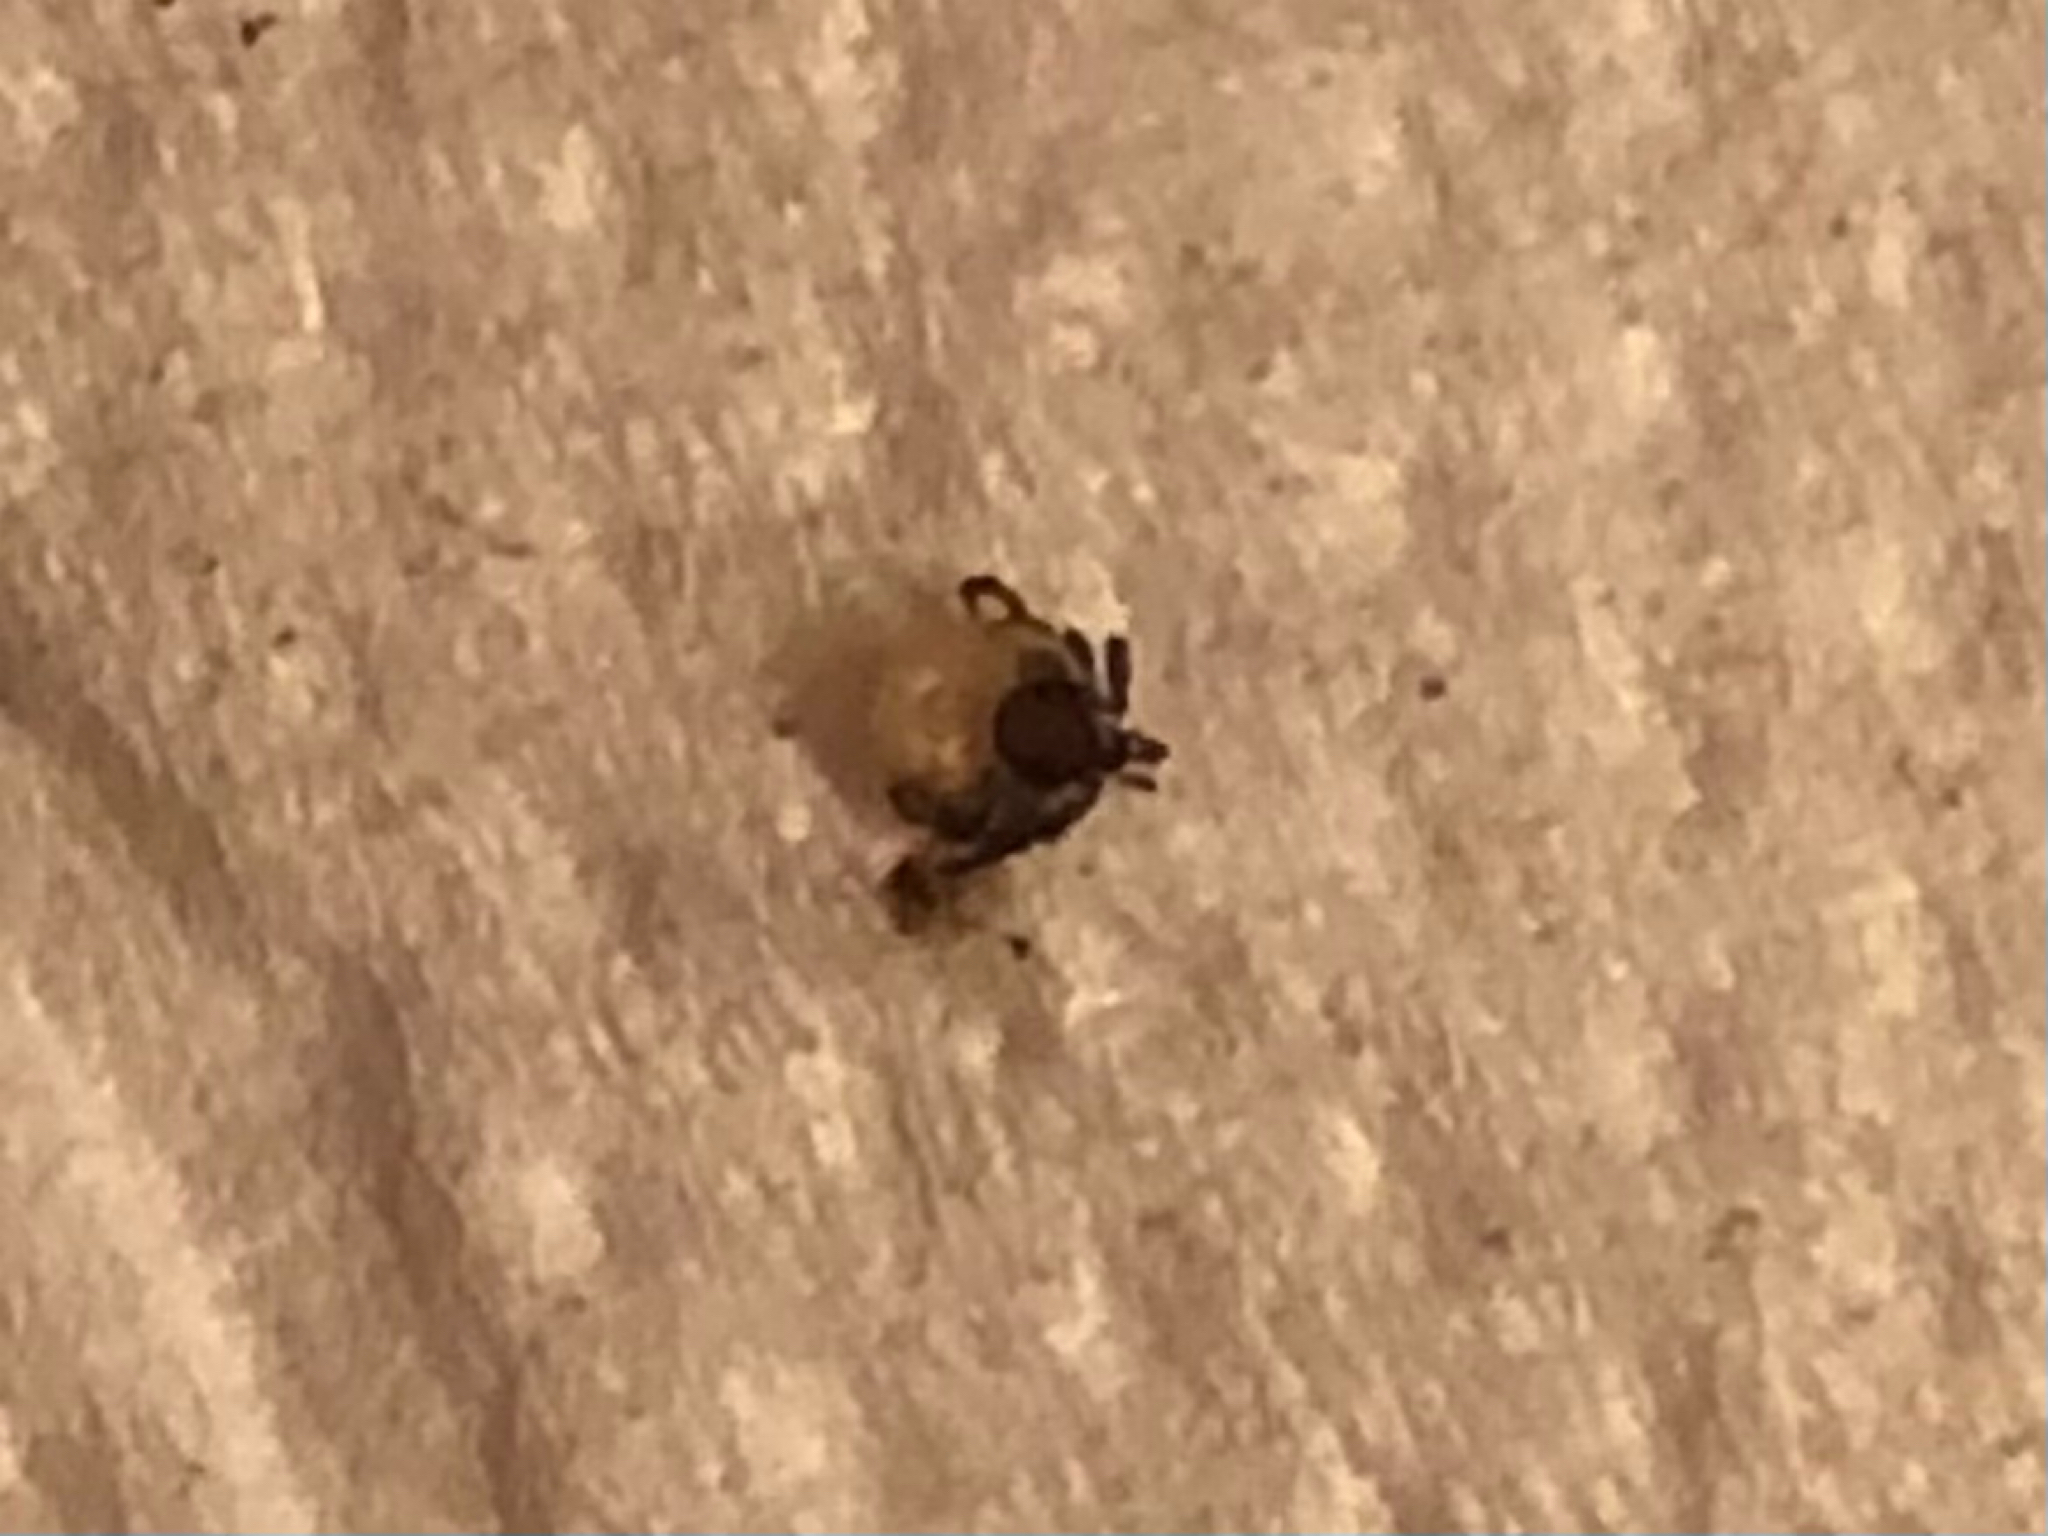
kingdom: Animalia
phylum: Arthropoda
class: Arachnida
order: Ixodida
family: Ixodidae
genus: Ixodes
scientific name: Ixodes ricinus
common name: Castor bean tick
